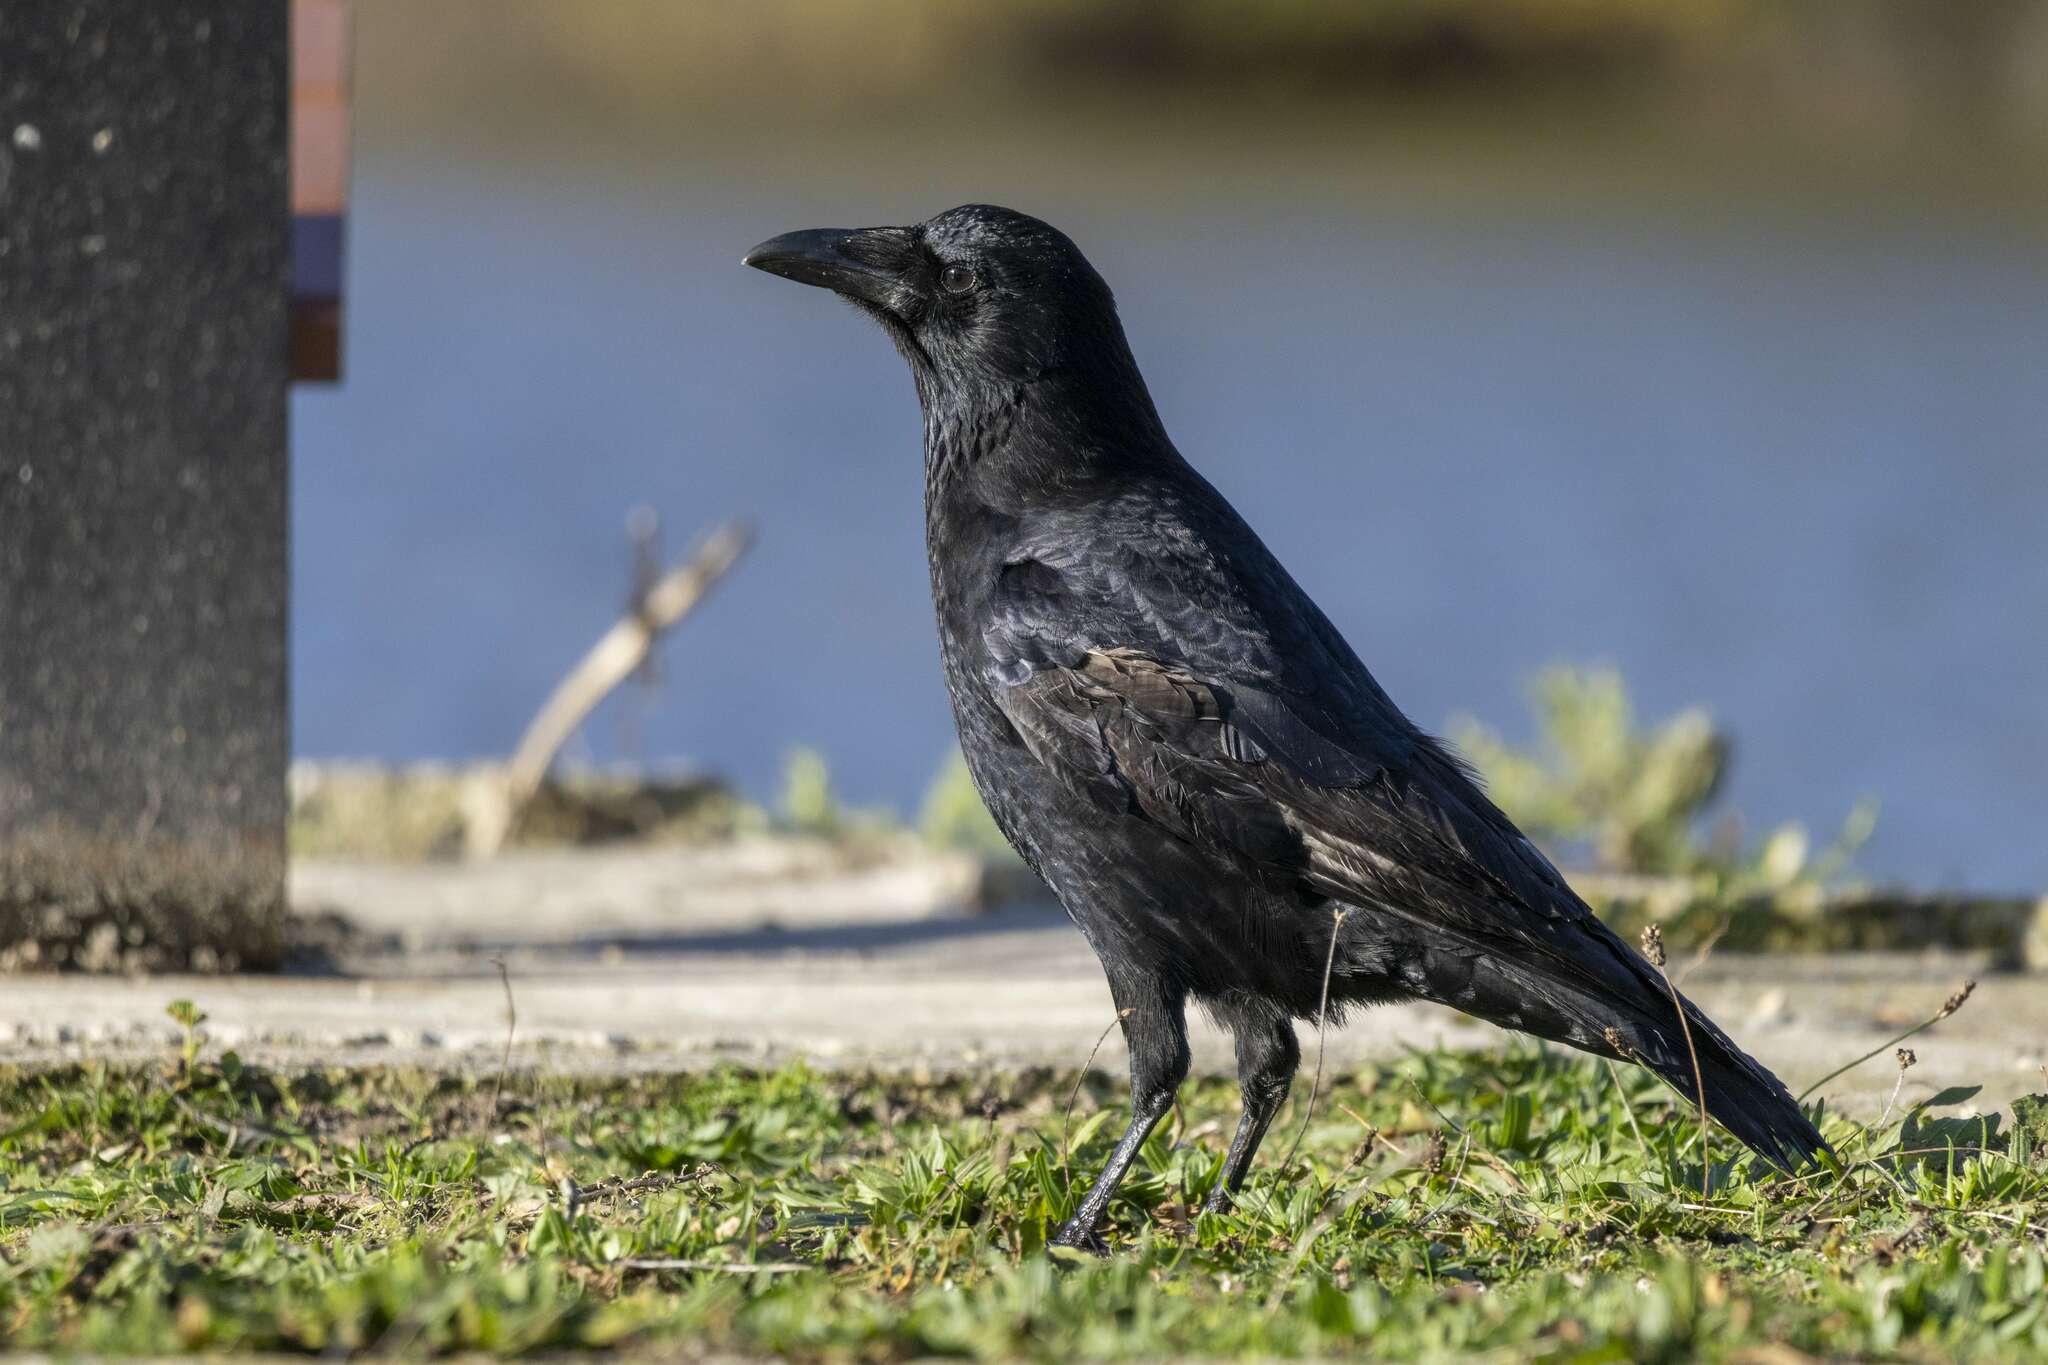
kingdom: Animalia
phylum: Chordata
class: Aves
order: Passeriformes
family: Corvidae
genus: Corvus
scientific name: Corvus corone
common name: Carrion crow
